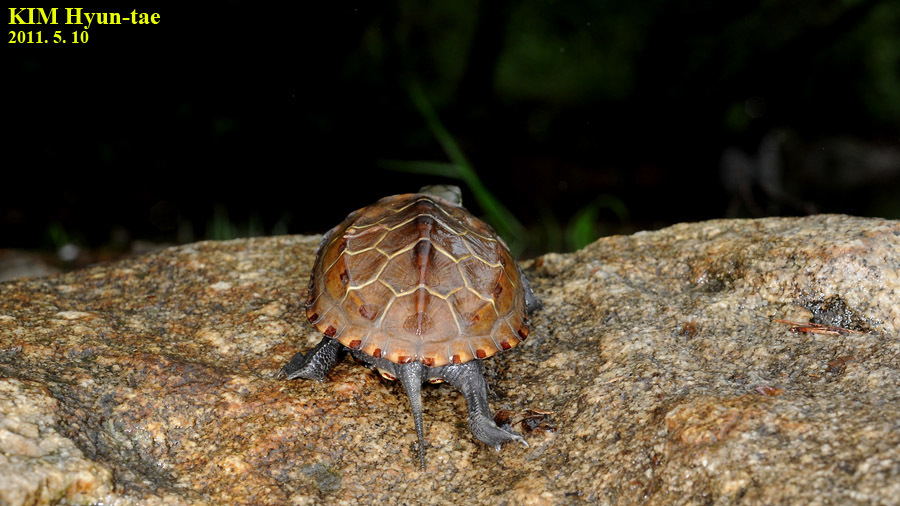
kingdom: Animalia
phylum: Chordata
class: Testudines
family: Geoemydidae
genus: Mauremys
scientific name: Mauremys reevesii
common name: Chinese pond turtle
